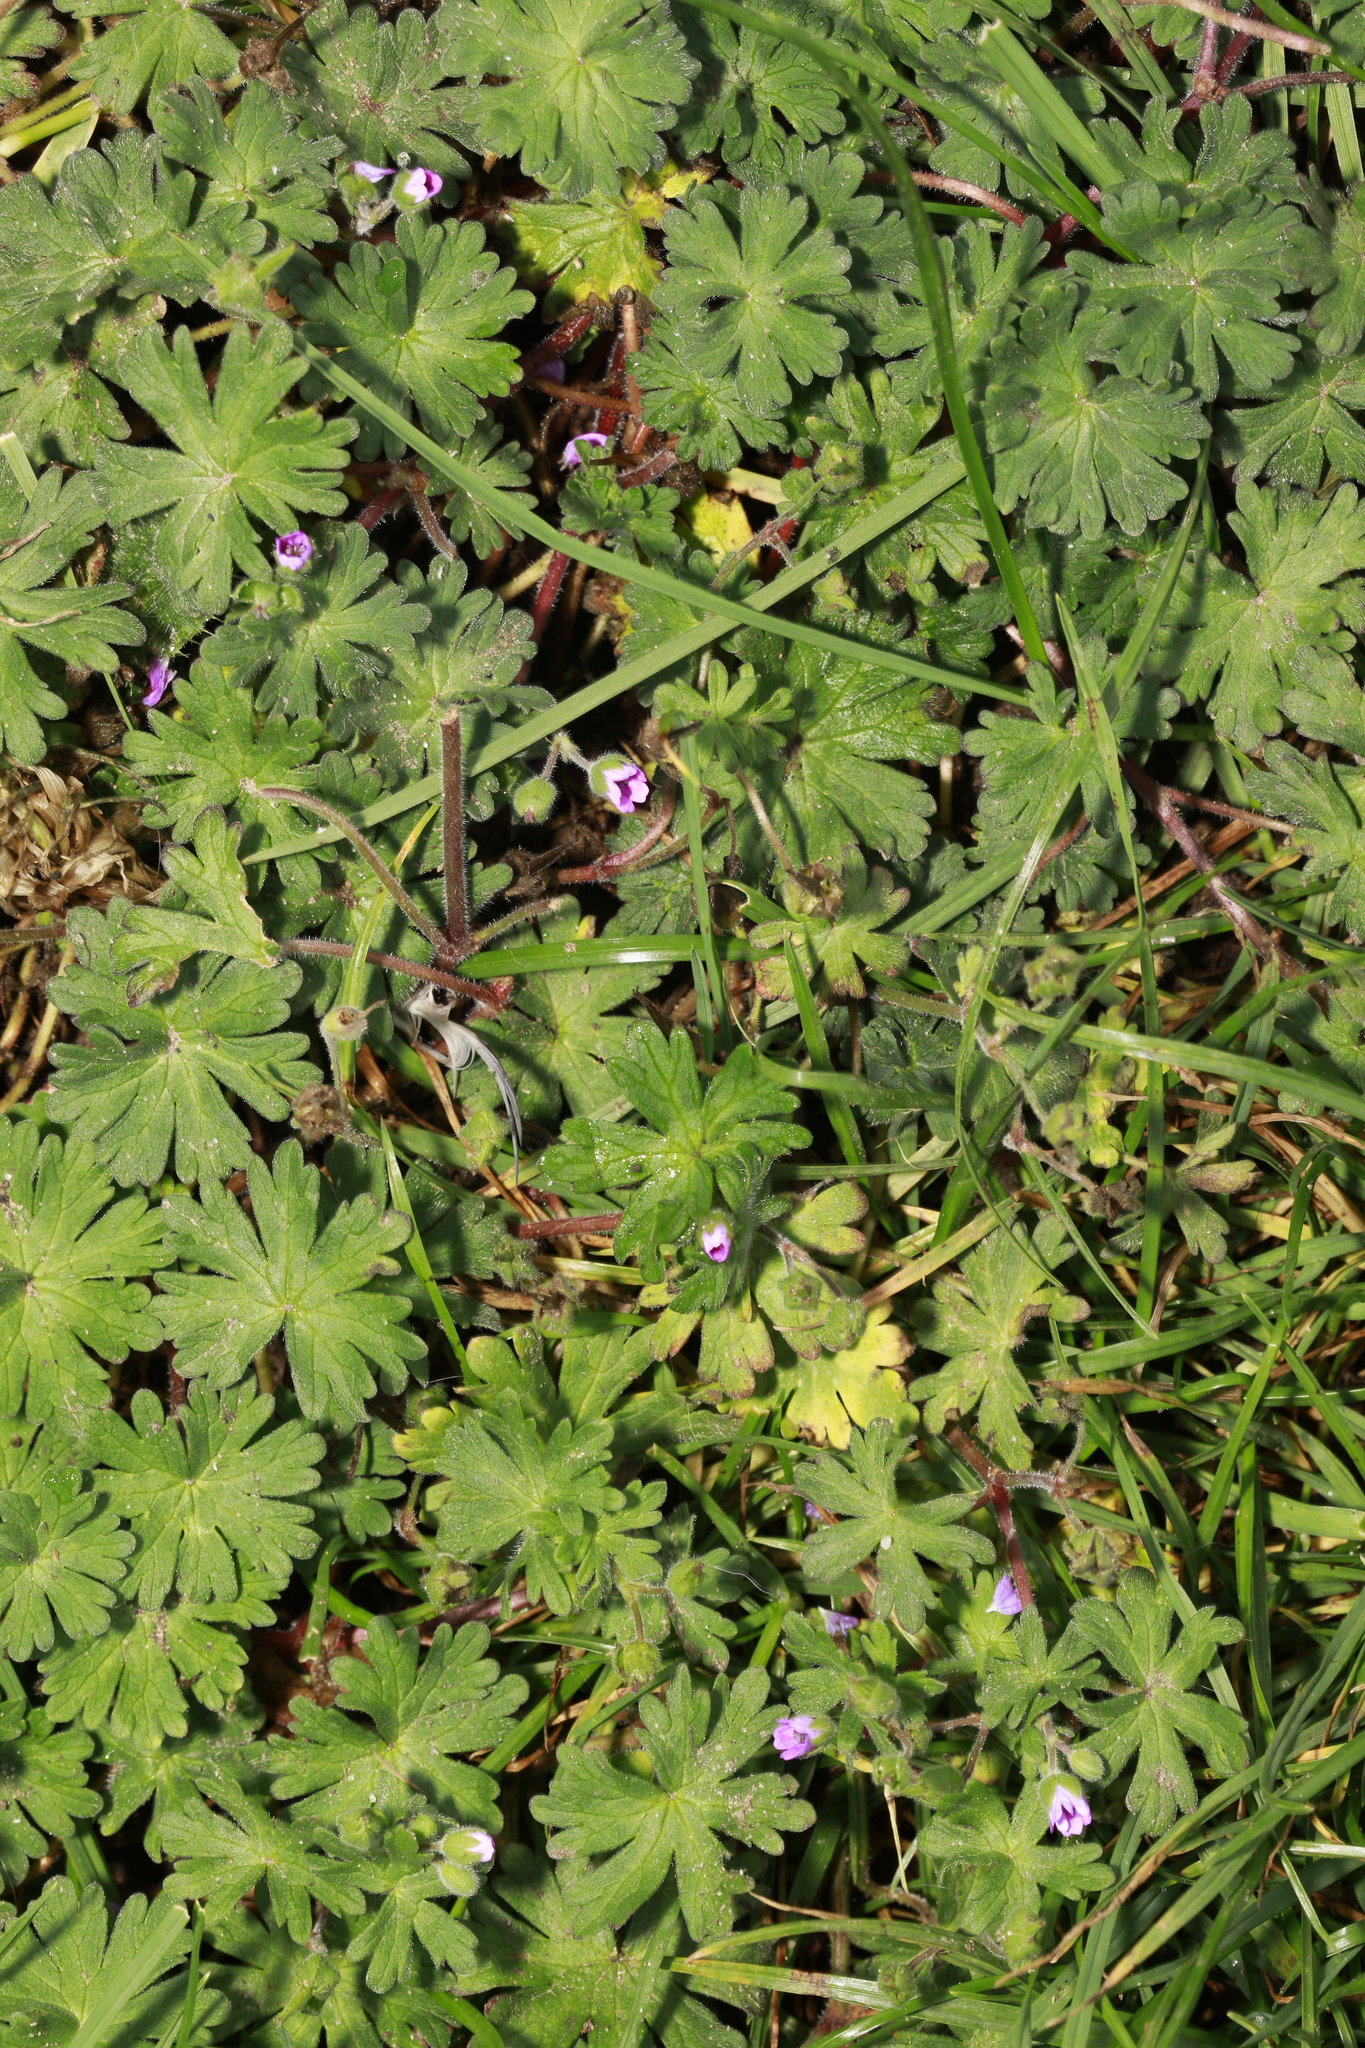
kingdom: Plantae
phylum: Tracheophyta
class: Magnoliopsida
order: Geraniales
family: Geraniaceae
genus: Geranium
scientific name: Geranium molle
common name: Dove's-foot crane's-bill
